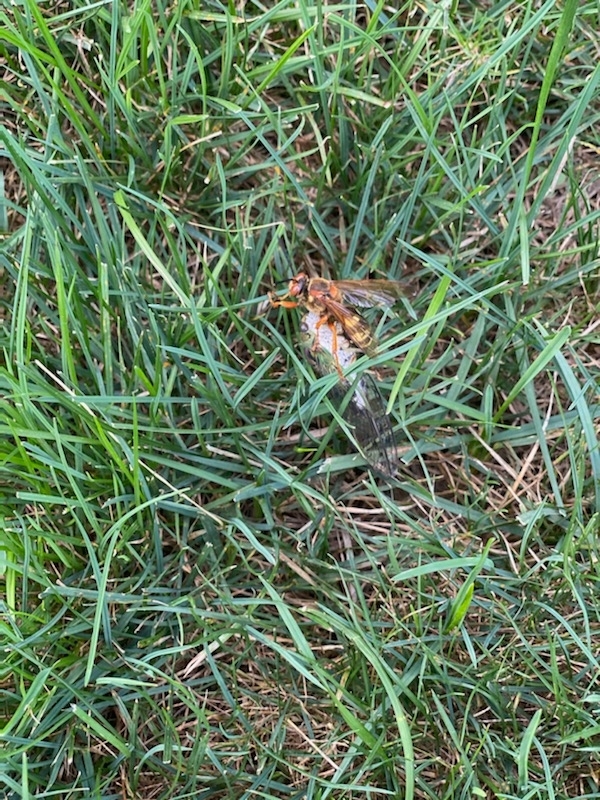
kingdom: Animalia
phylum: Arthropoda
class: Insecta
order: Hymenoptera
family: Crabronidae
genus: Sphecius
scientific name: Sphecius speciosus
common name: Cicada killer
